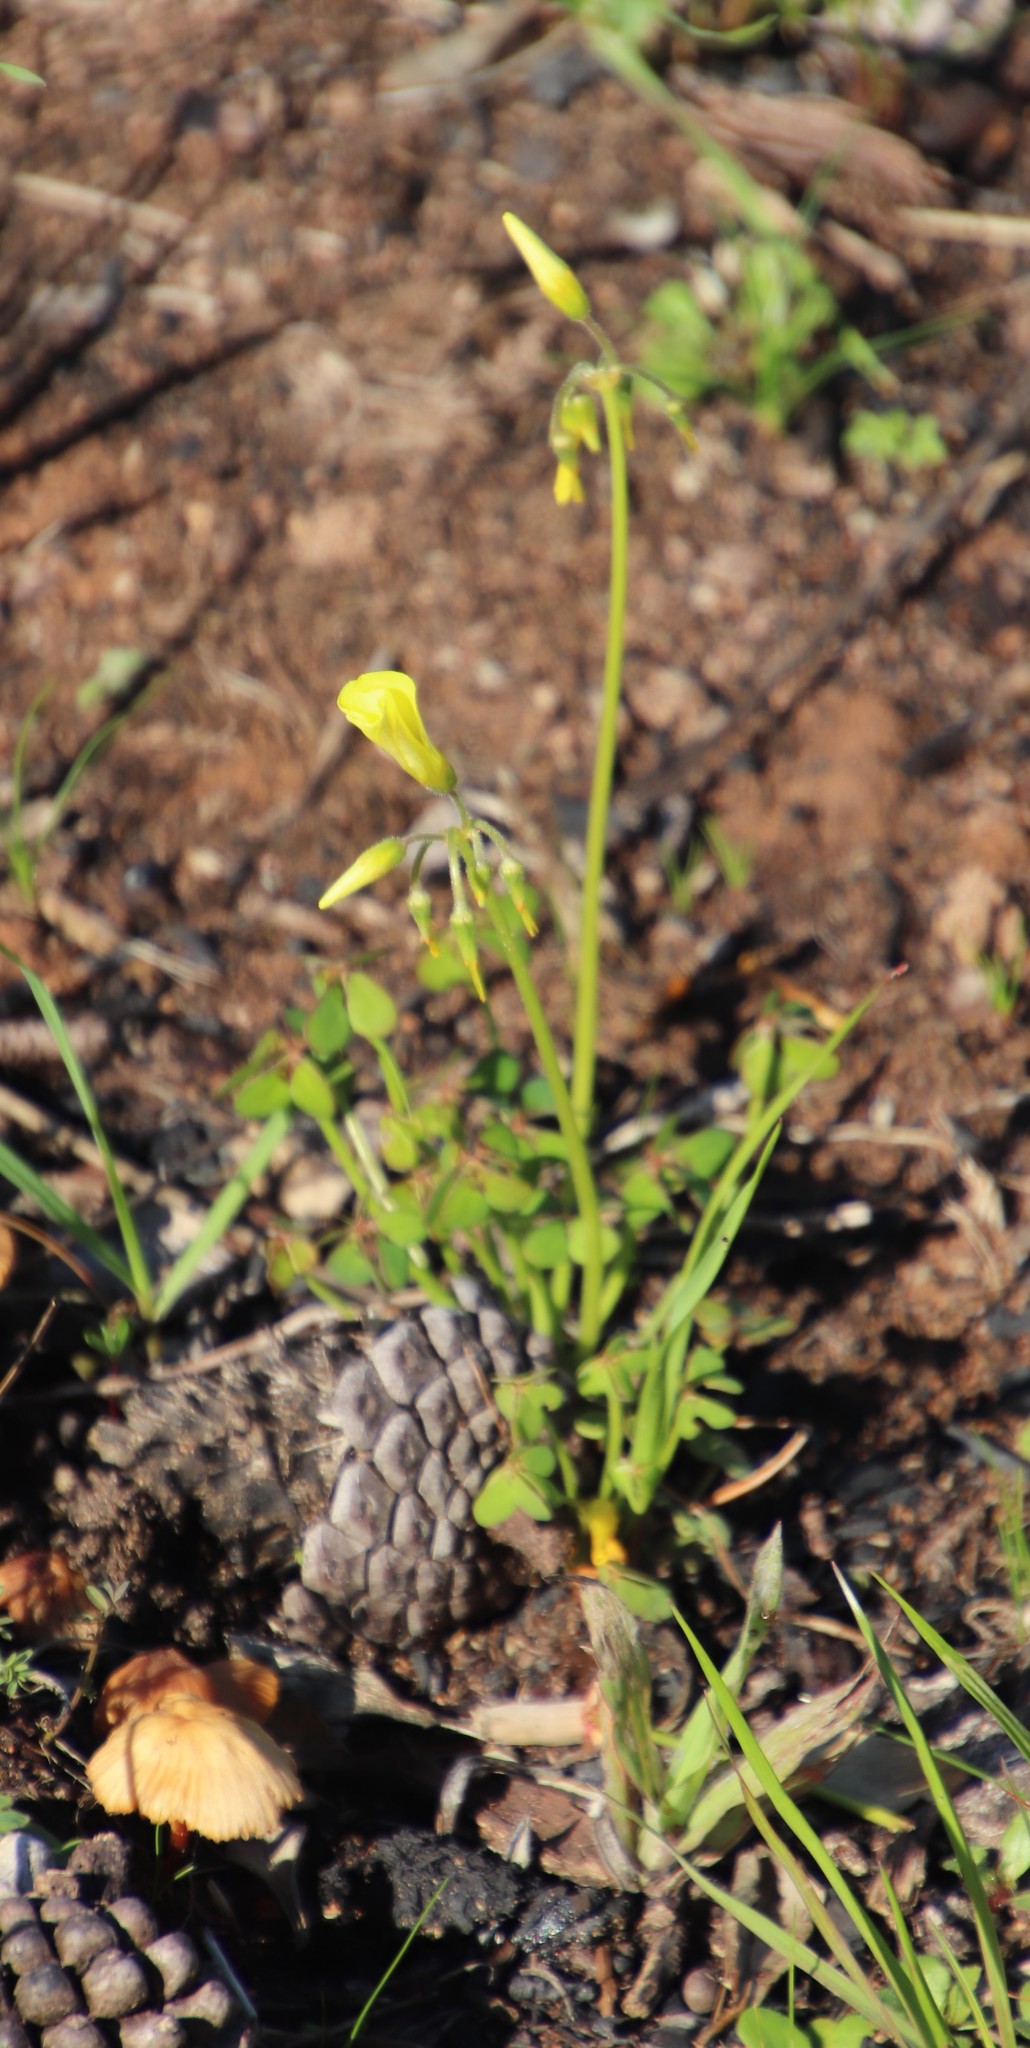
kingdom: Plantae
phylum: Tracheophyta
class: Magnoliopsida
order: Oxalidales
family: Oxalidaceae
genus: Oxalis
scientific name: Oxalis pes-caprae
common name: Bermuda-buttercup
